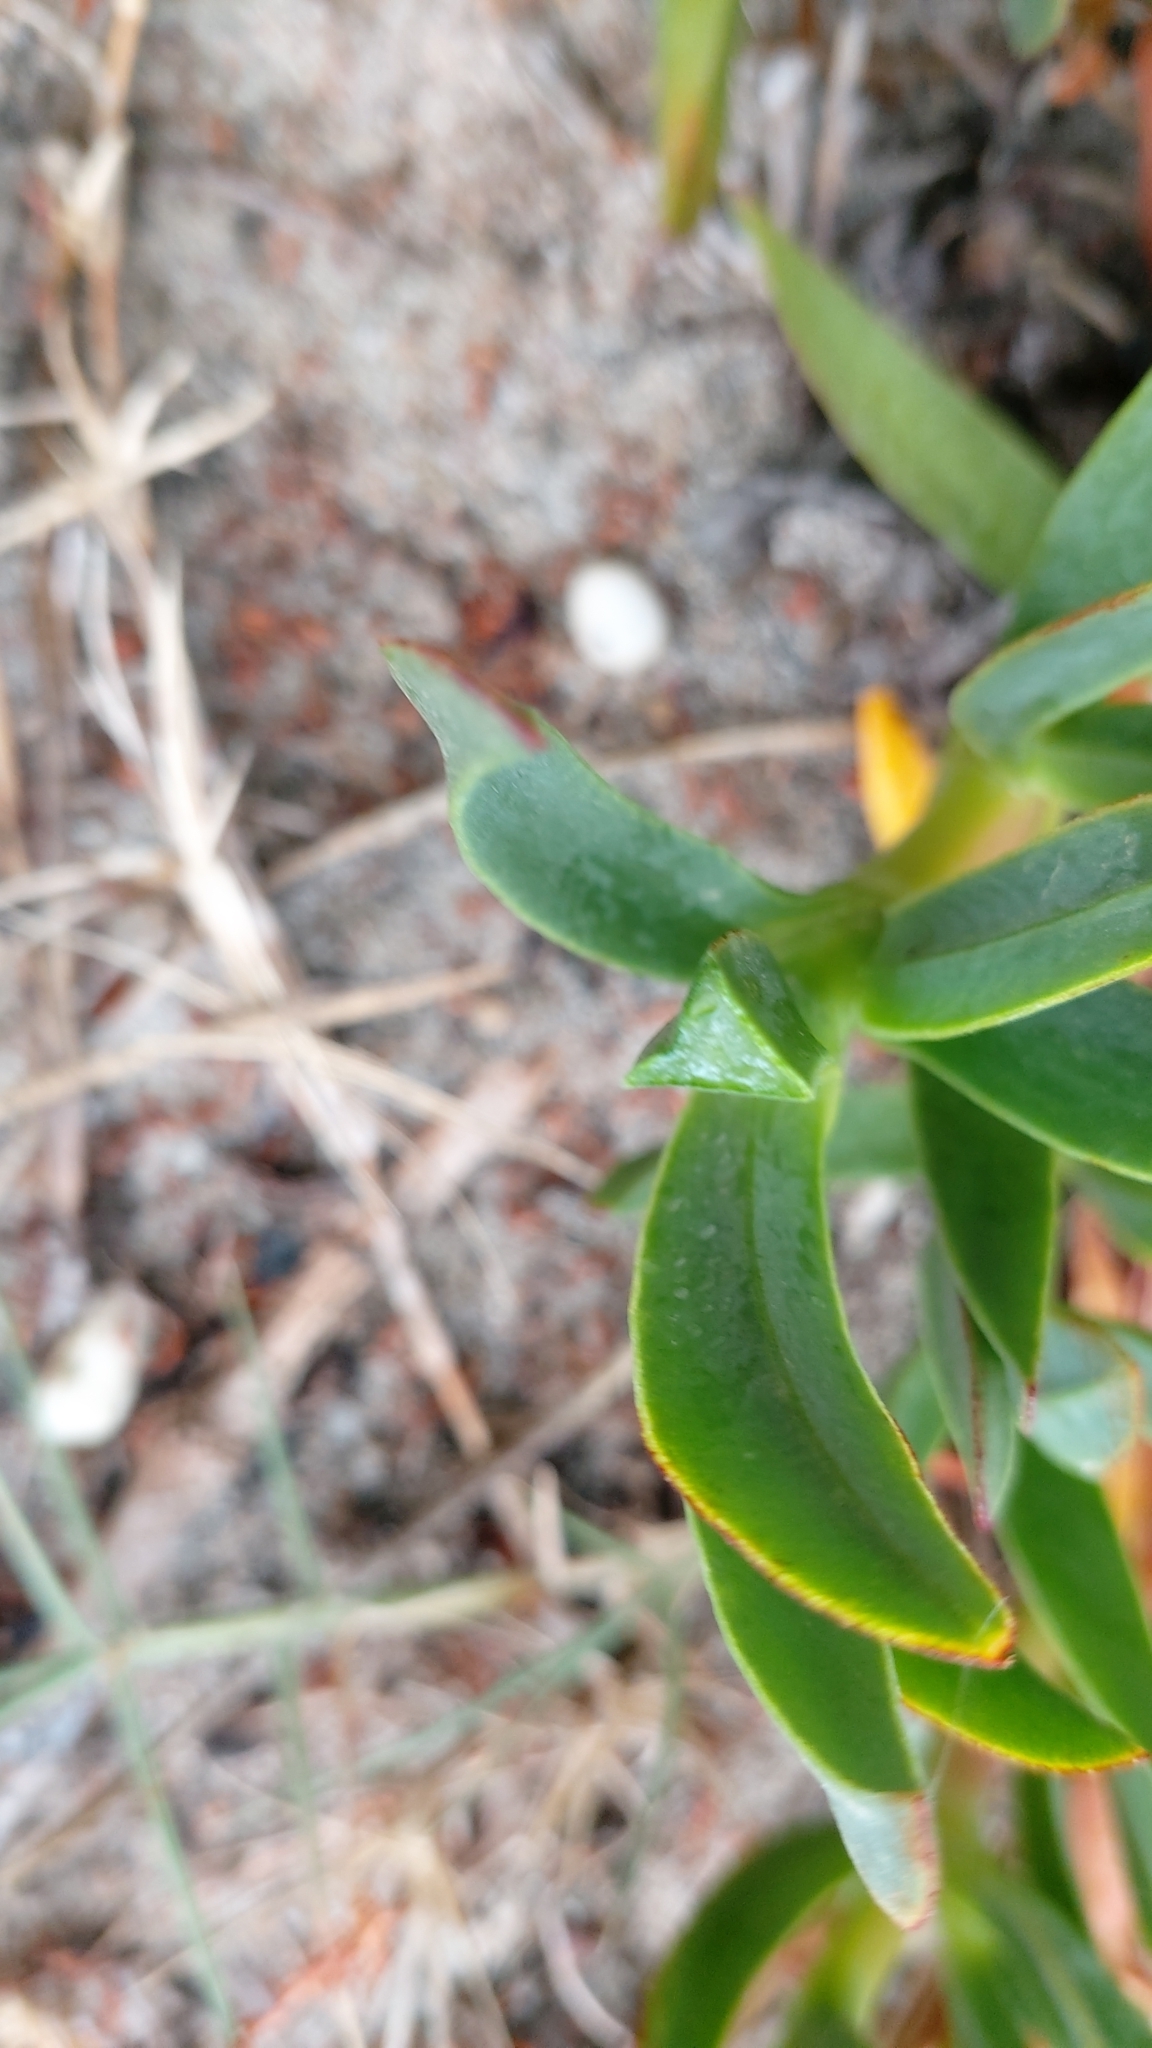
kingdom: Plantae
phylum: Tracheophyta
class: Magnoliopsida
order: Caryophyllales
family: Aizoaceae
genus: Carpobrotus
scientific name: Carpobrotus edulis
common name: Hottentot-fig
